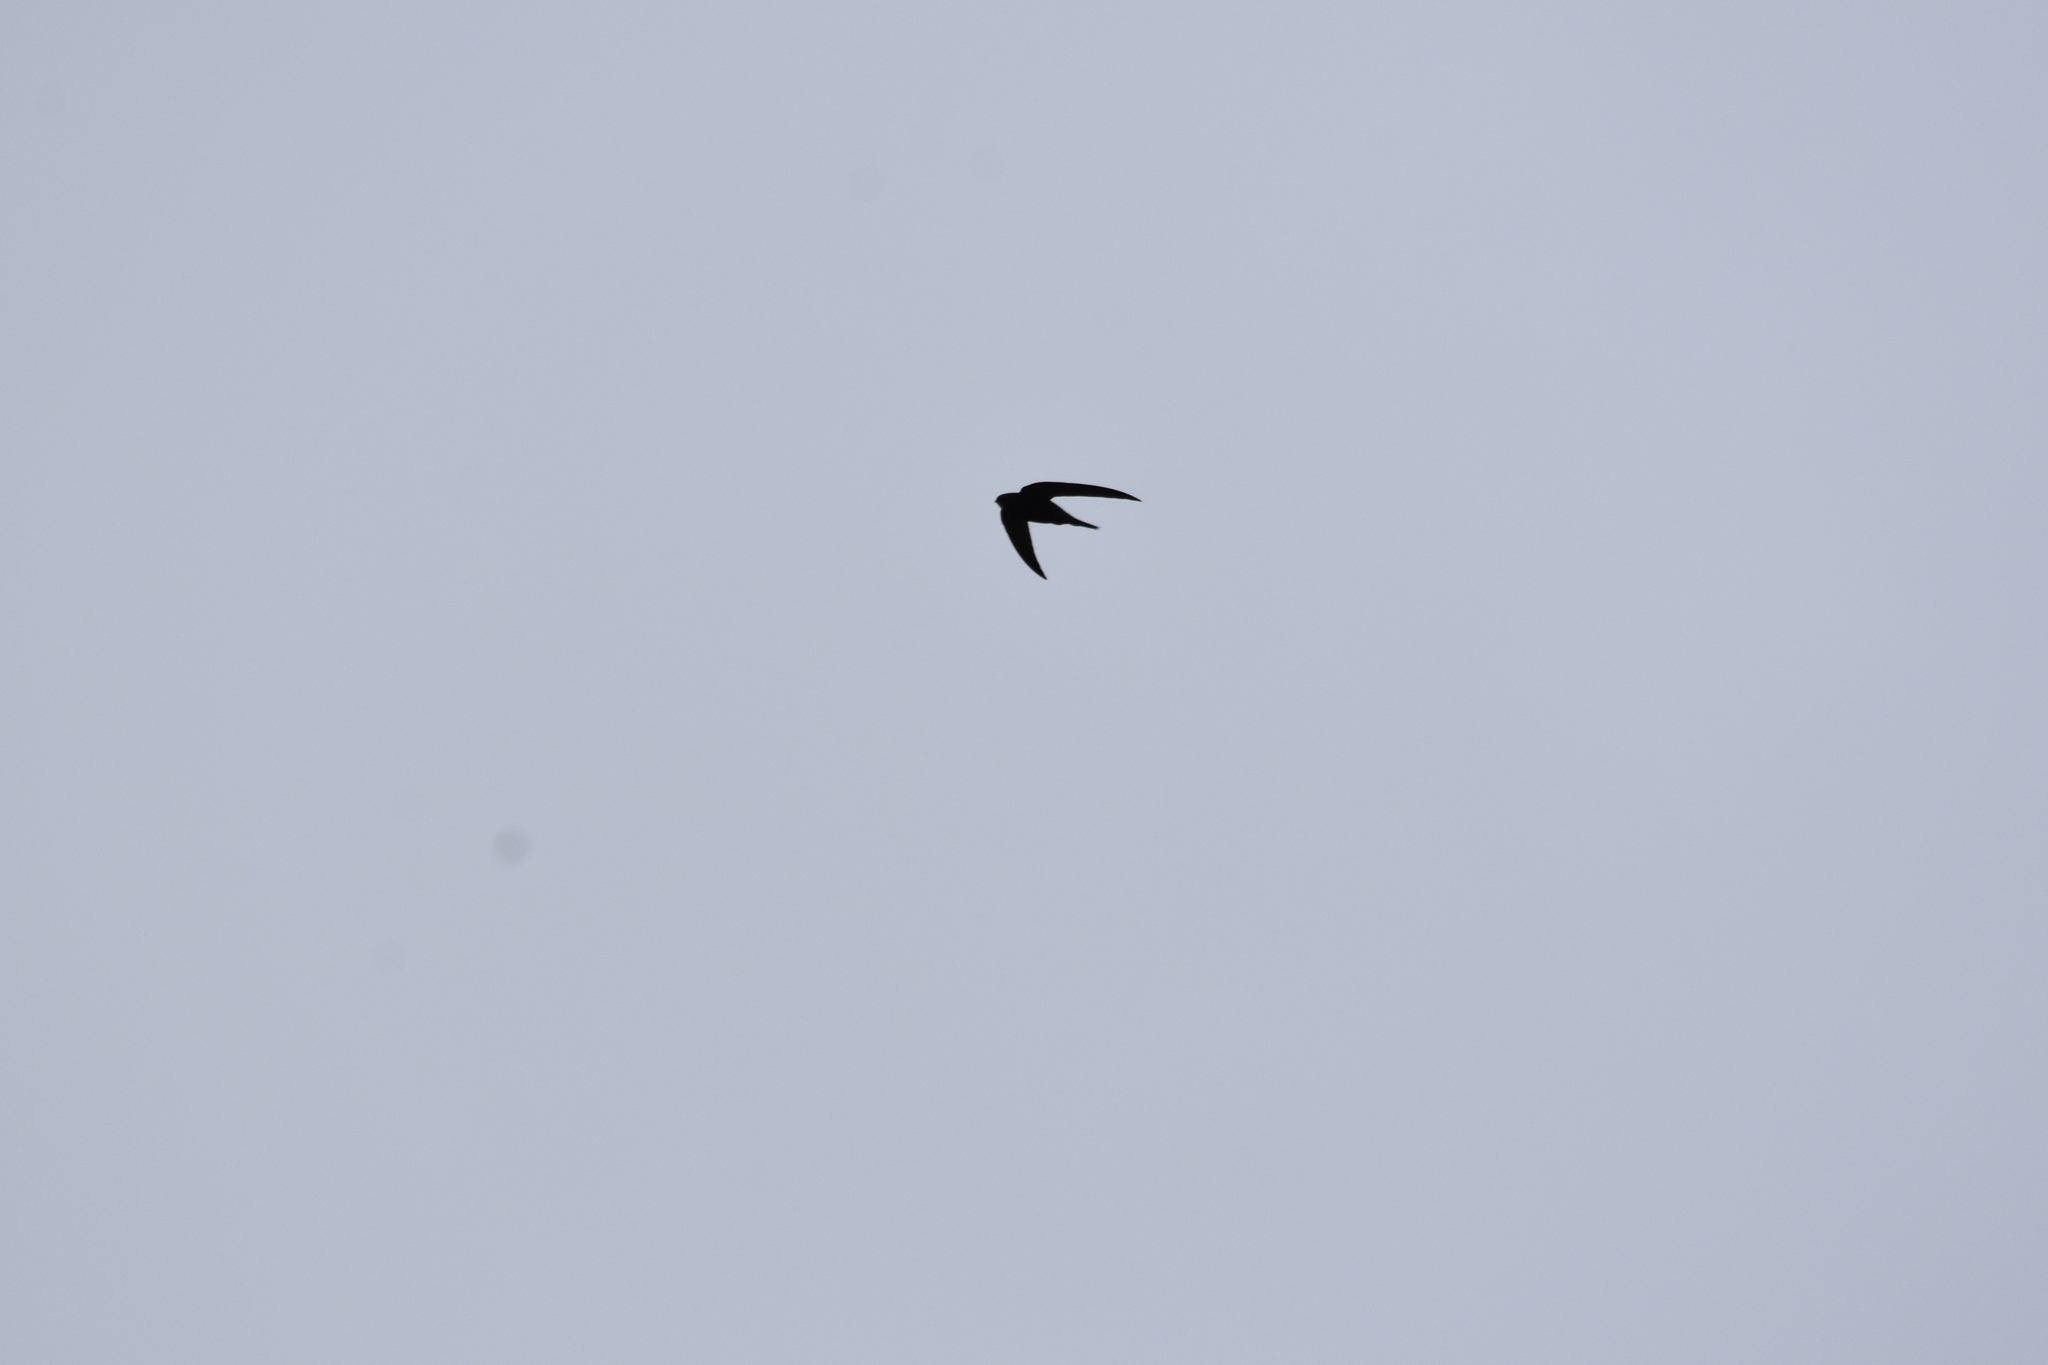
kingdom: Animalia
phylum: Chordata
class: Aves
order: Apodiformes
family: Apodidae
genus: Apus
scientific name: Apus apus
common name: Common swift
